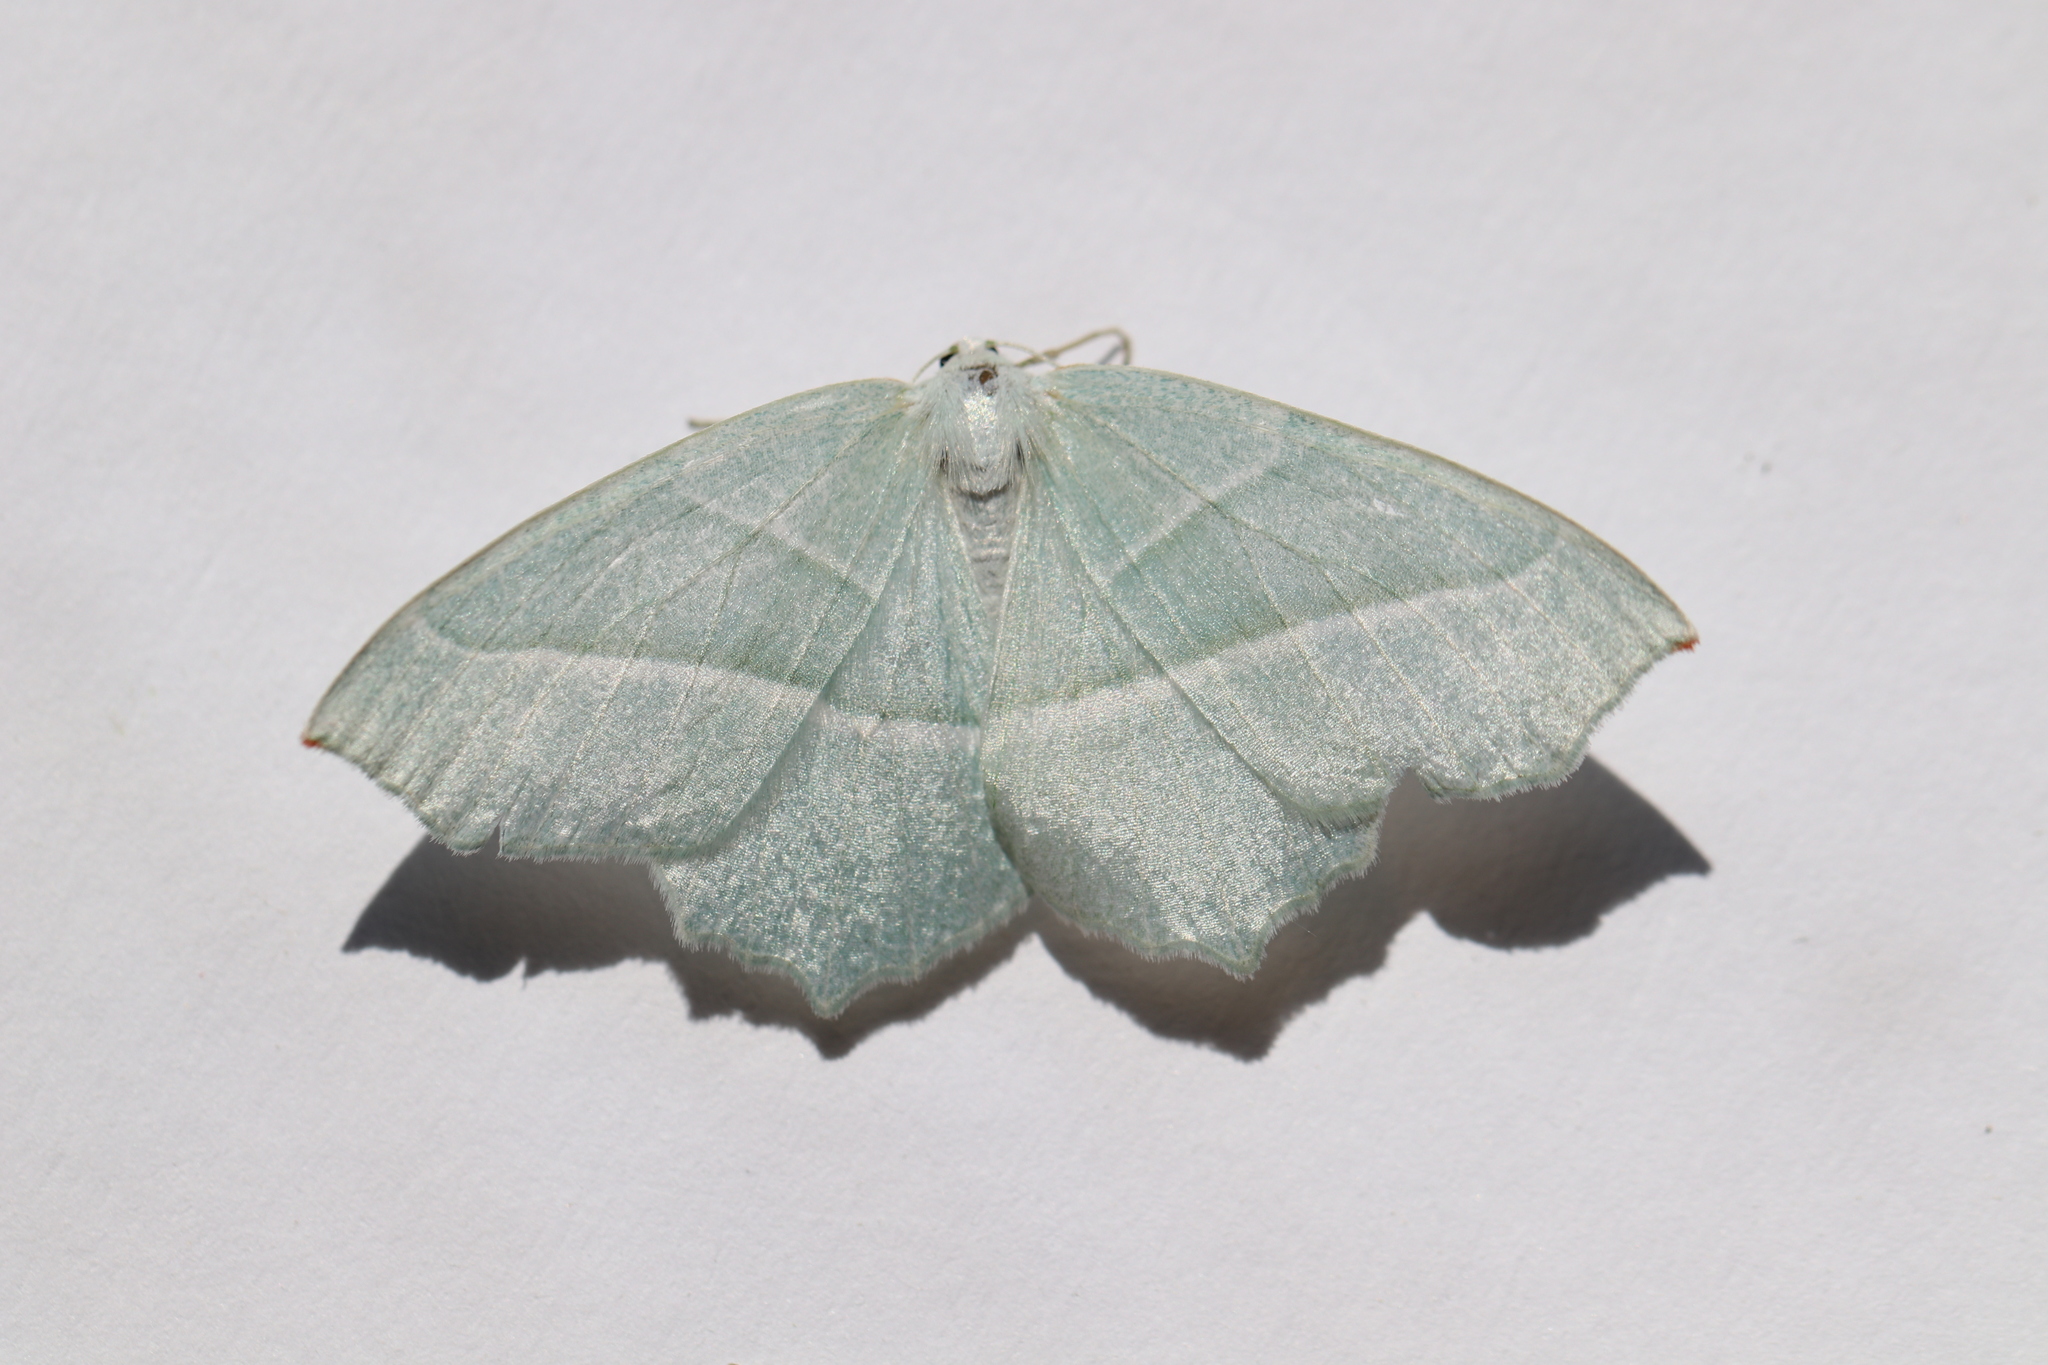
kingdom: Animalia
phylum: Arthropoda
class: Insecta
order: Lepidoptera
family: Geometridae
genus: Campaea
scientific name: Campaea margaritaria
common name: Light emerald
